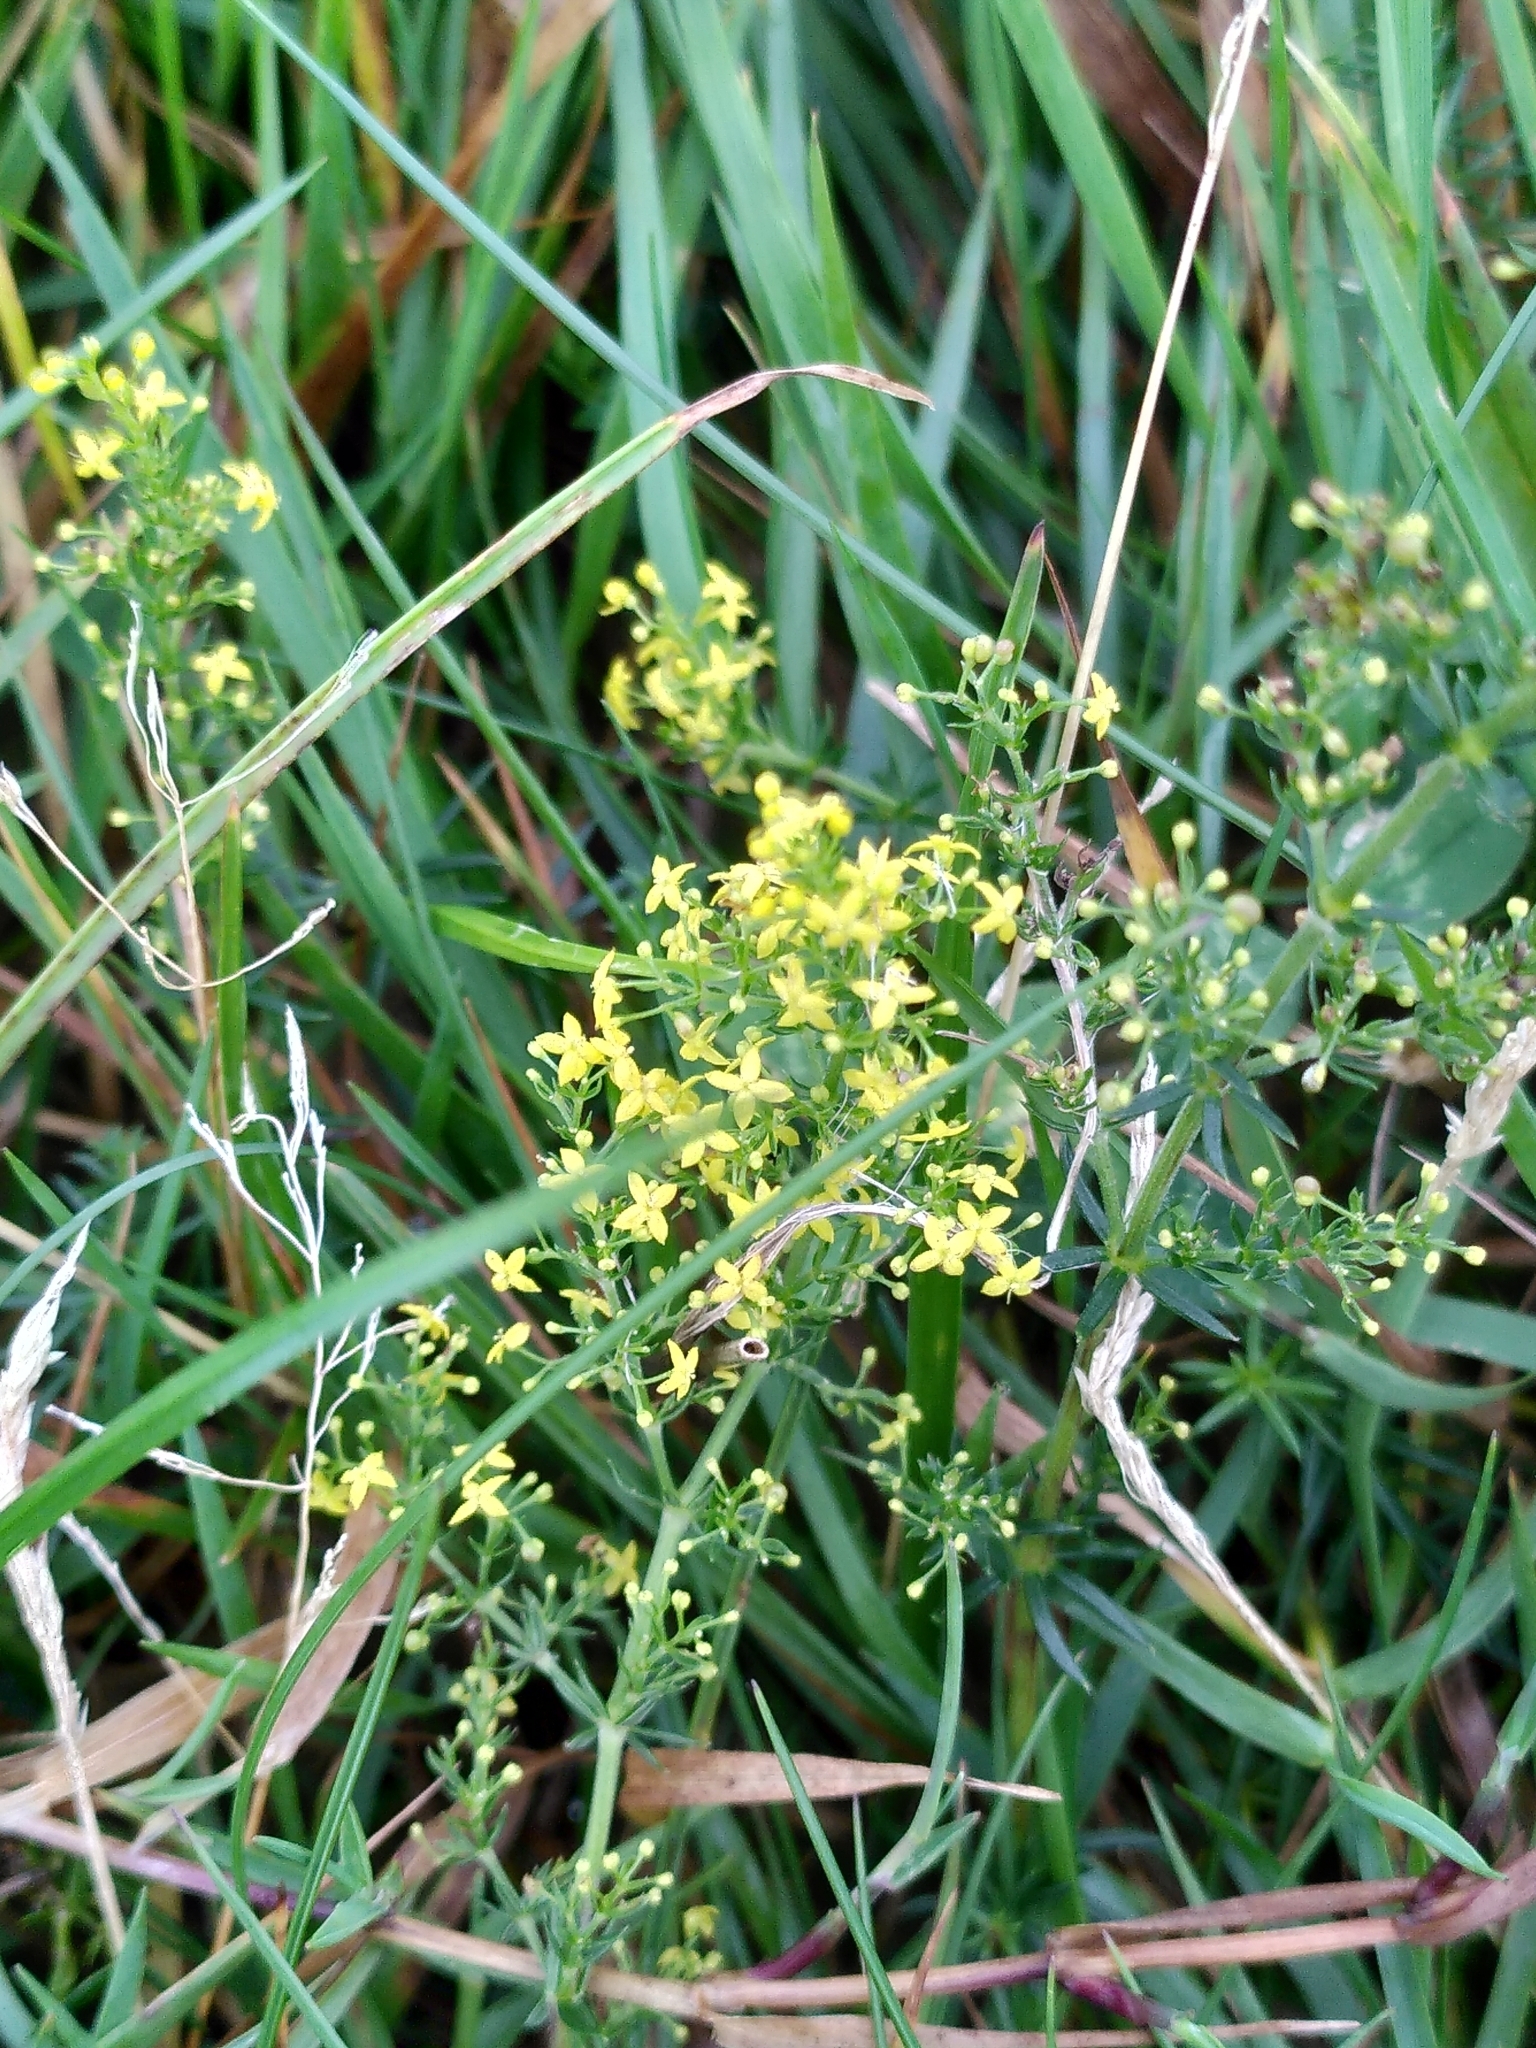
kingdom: Plantae
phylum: Tracheophyta
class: Magnoliopsida
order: Gentianales
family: Rubiaceae
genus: Galium
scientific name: Galium verum
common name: Lady's bedstraw
